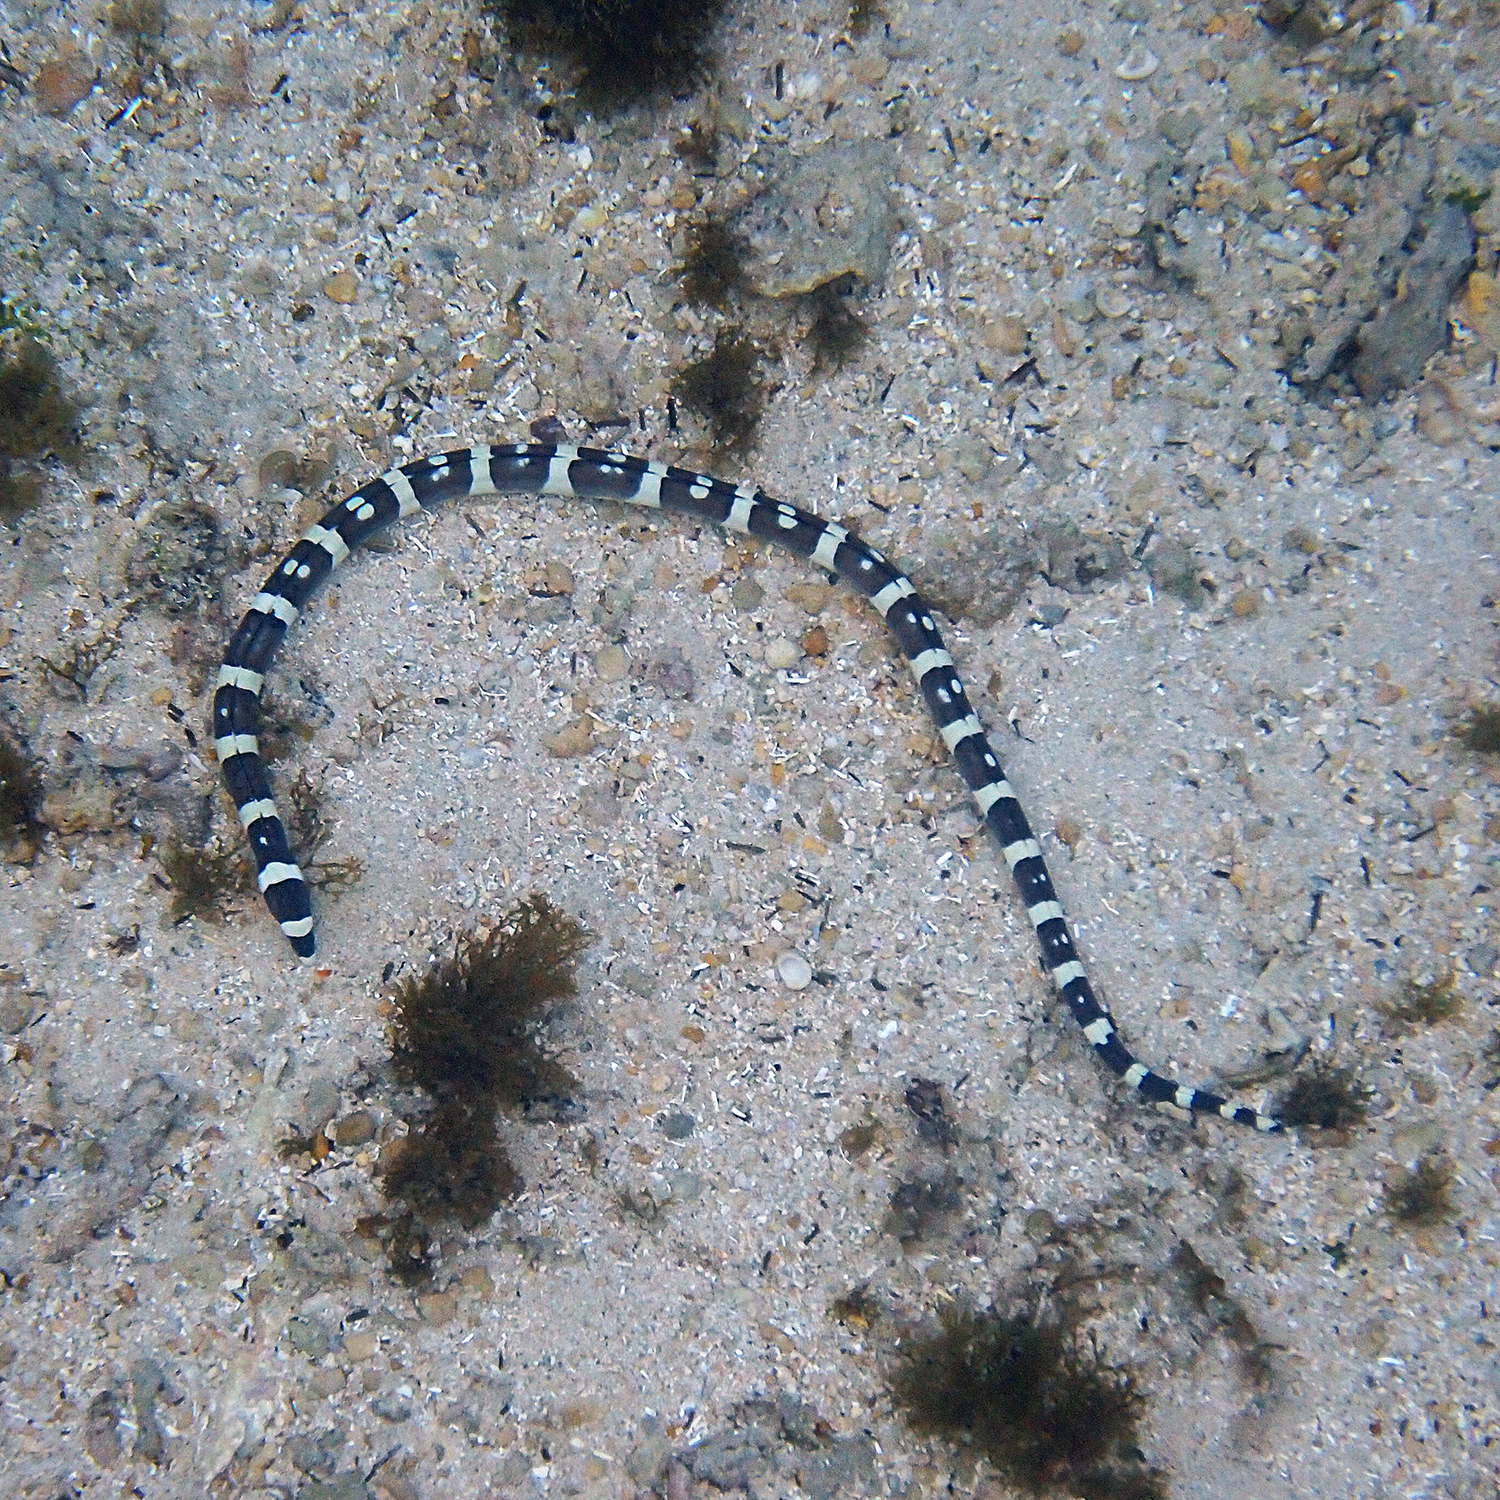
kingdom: Animalia
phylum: Chordata
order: Anguilliformes
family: Ophichthidae
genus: Leiuranus
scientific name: Leiuranus versicolor
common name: Convict snake eel
